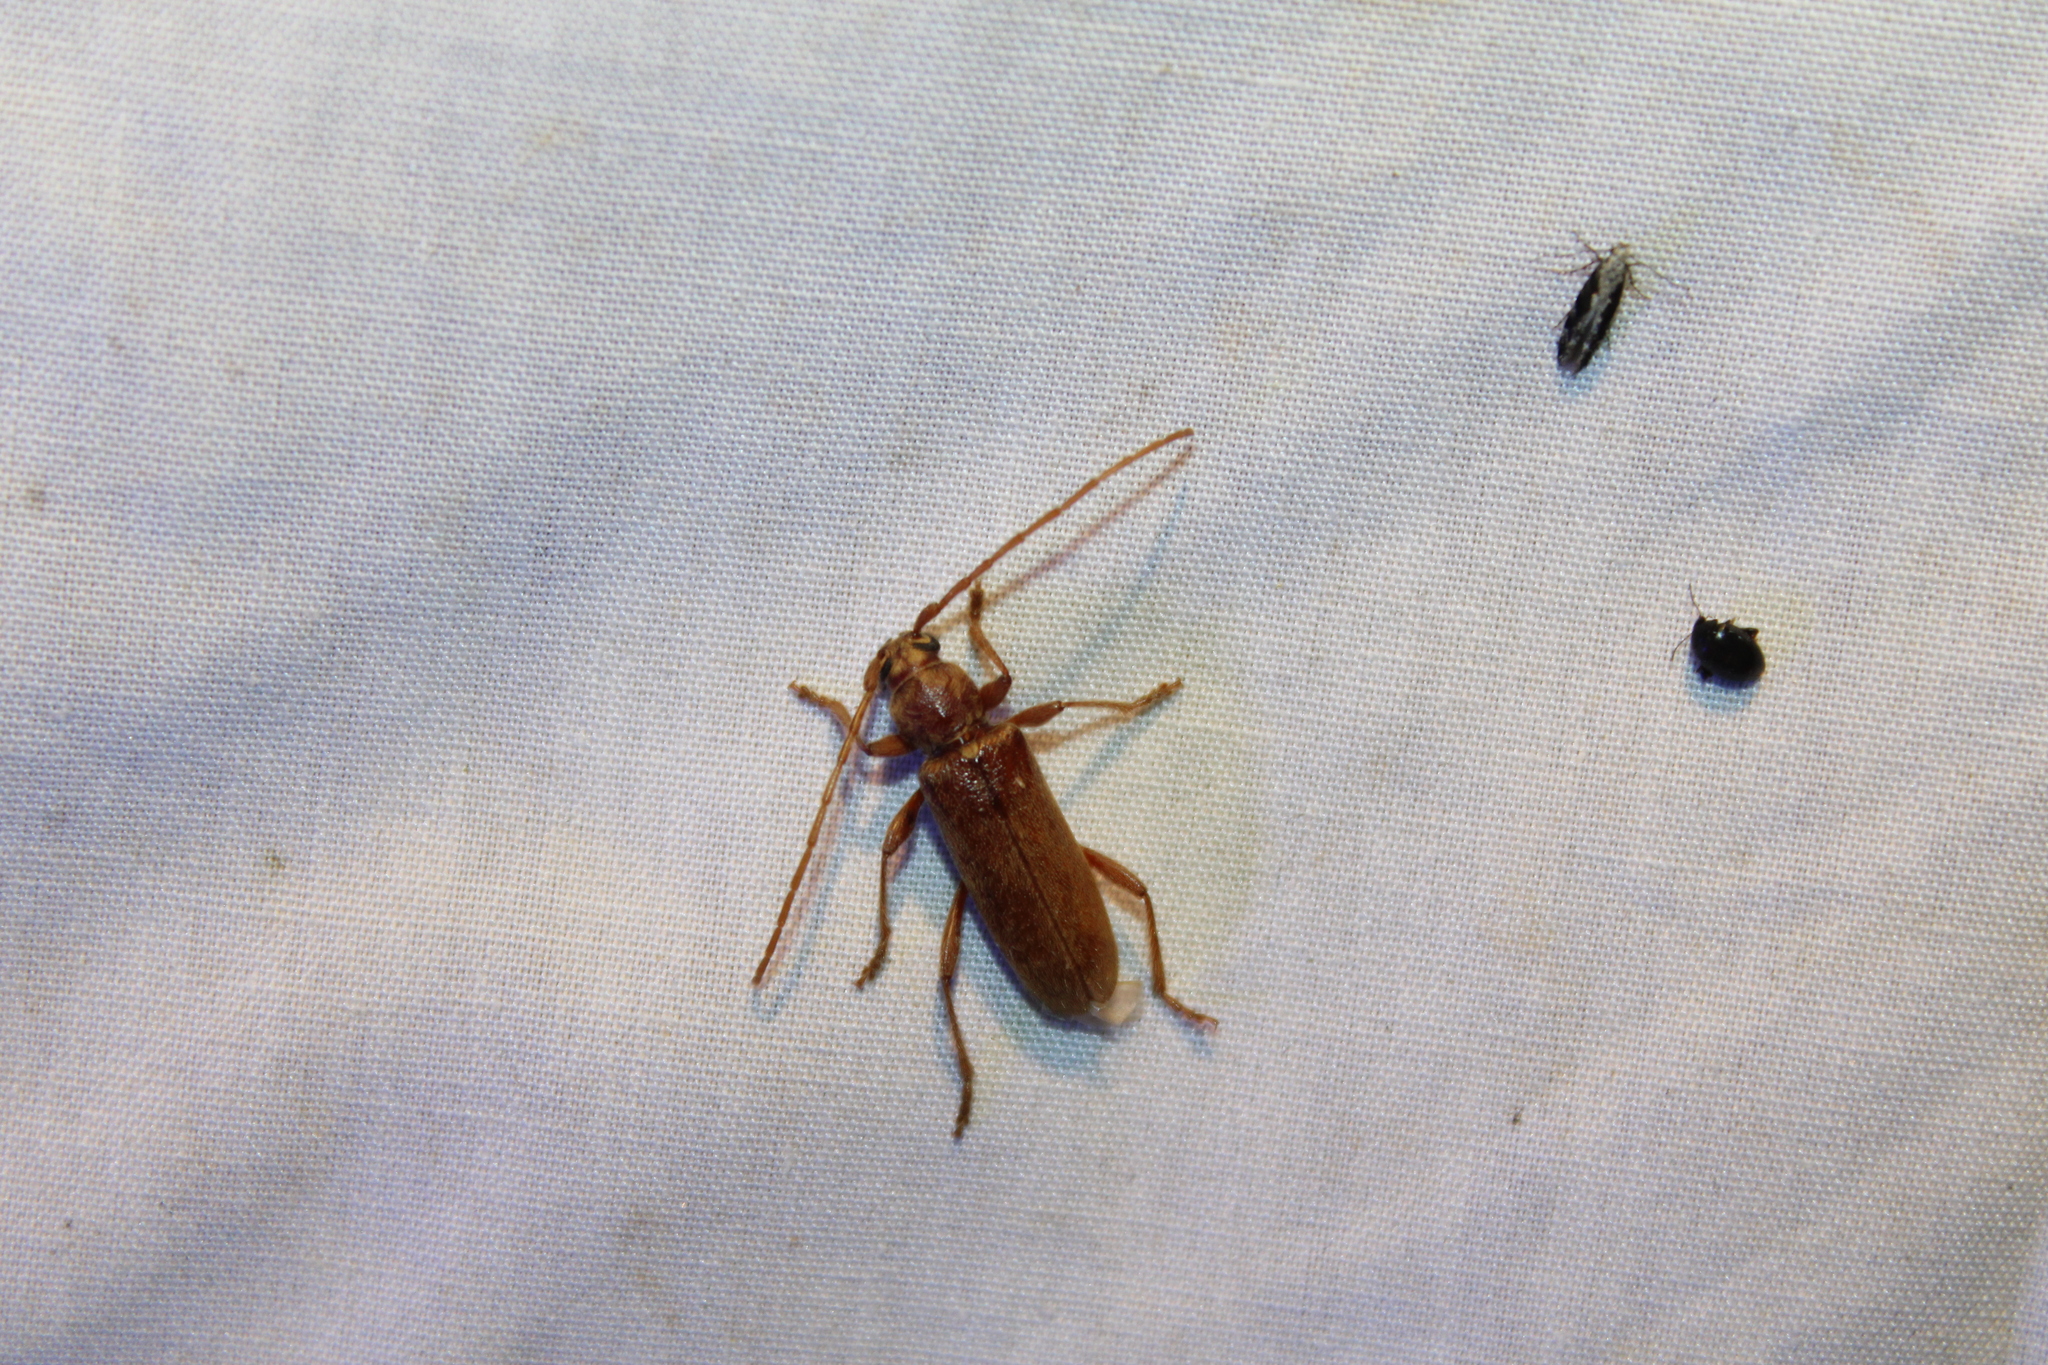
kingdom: Animalia
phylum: Arthropoda
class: Insecta
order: Coleoptera
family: Cerambycidae
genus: Hesperophanes
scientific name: Hesperophanes pubescens
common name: Longhorned wood-boring beetle
